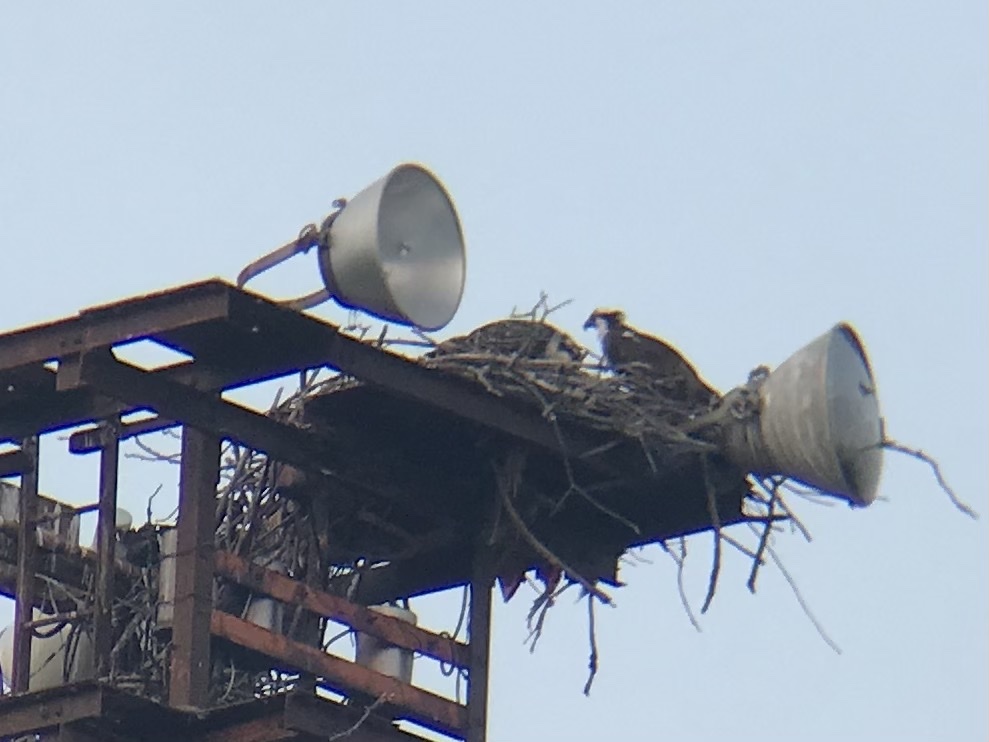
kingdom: Animalia
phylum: Chordata
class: Aves
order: Accipitriformes
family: Pandionidae
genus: Pandion
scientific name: Pandion haliaetus
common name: Osprey
